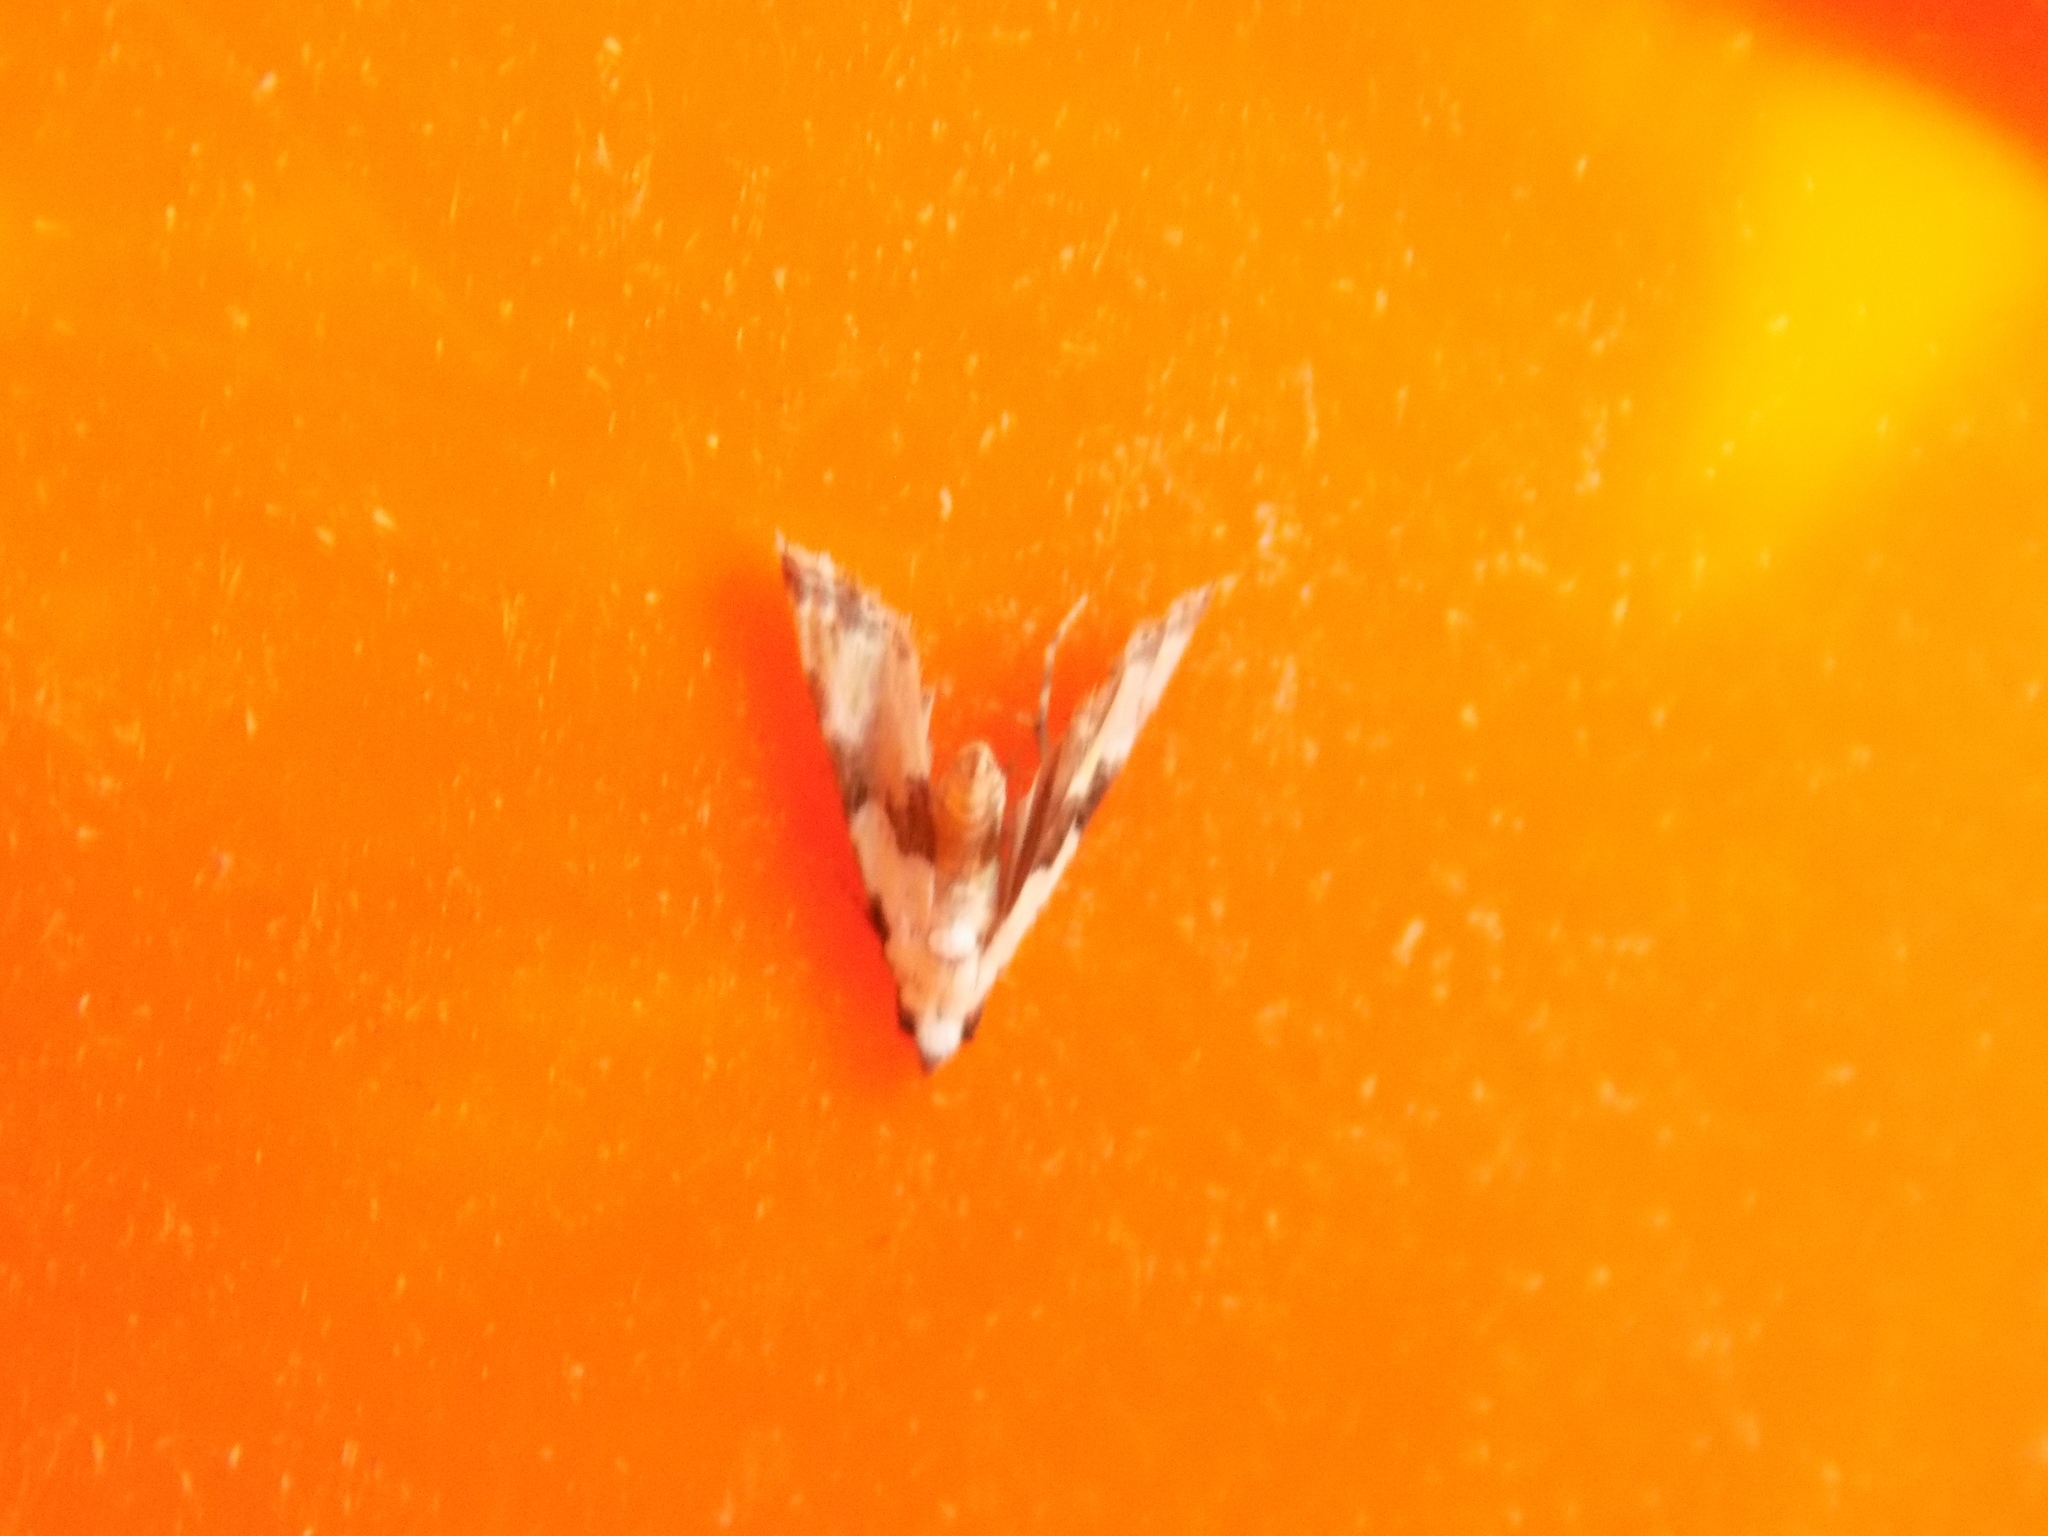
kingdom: Animalia
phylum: Arthropoda
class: Insecta
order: Lepidoptera
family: Noctuidae
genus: Nigetia
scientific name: Nigetia formosalis
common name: Thin-winged owlet
